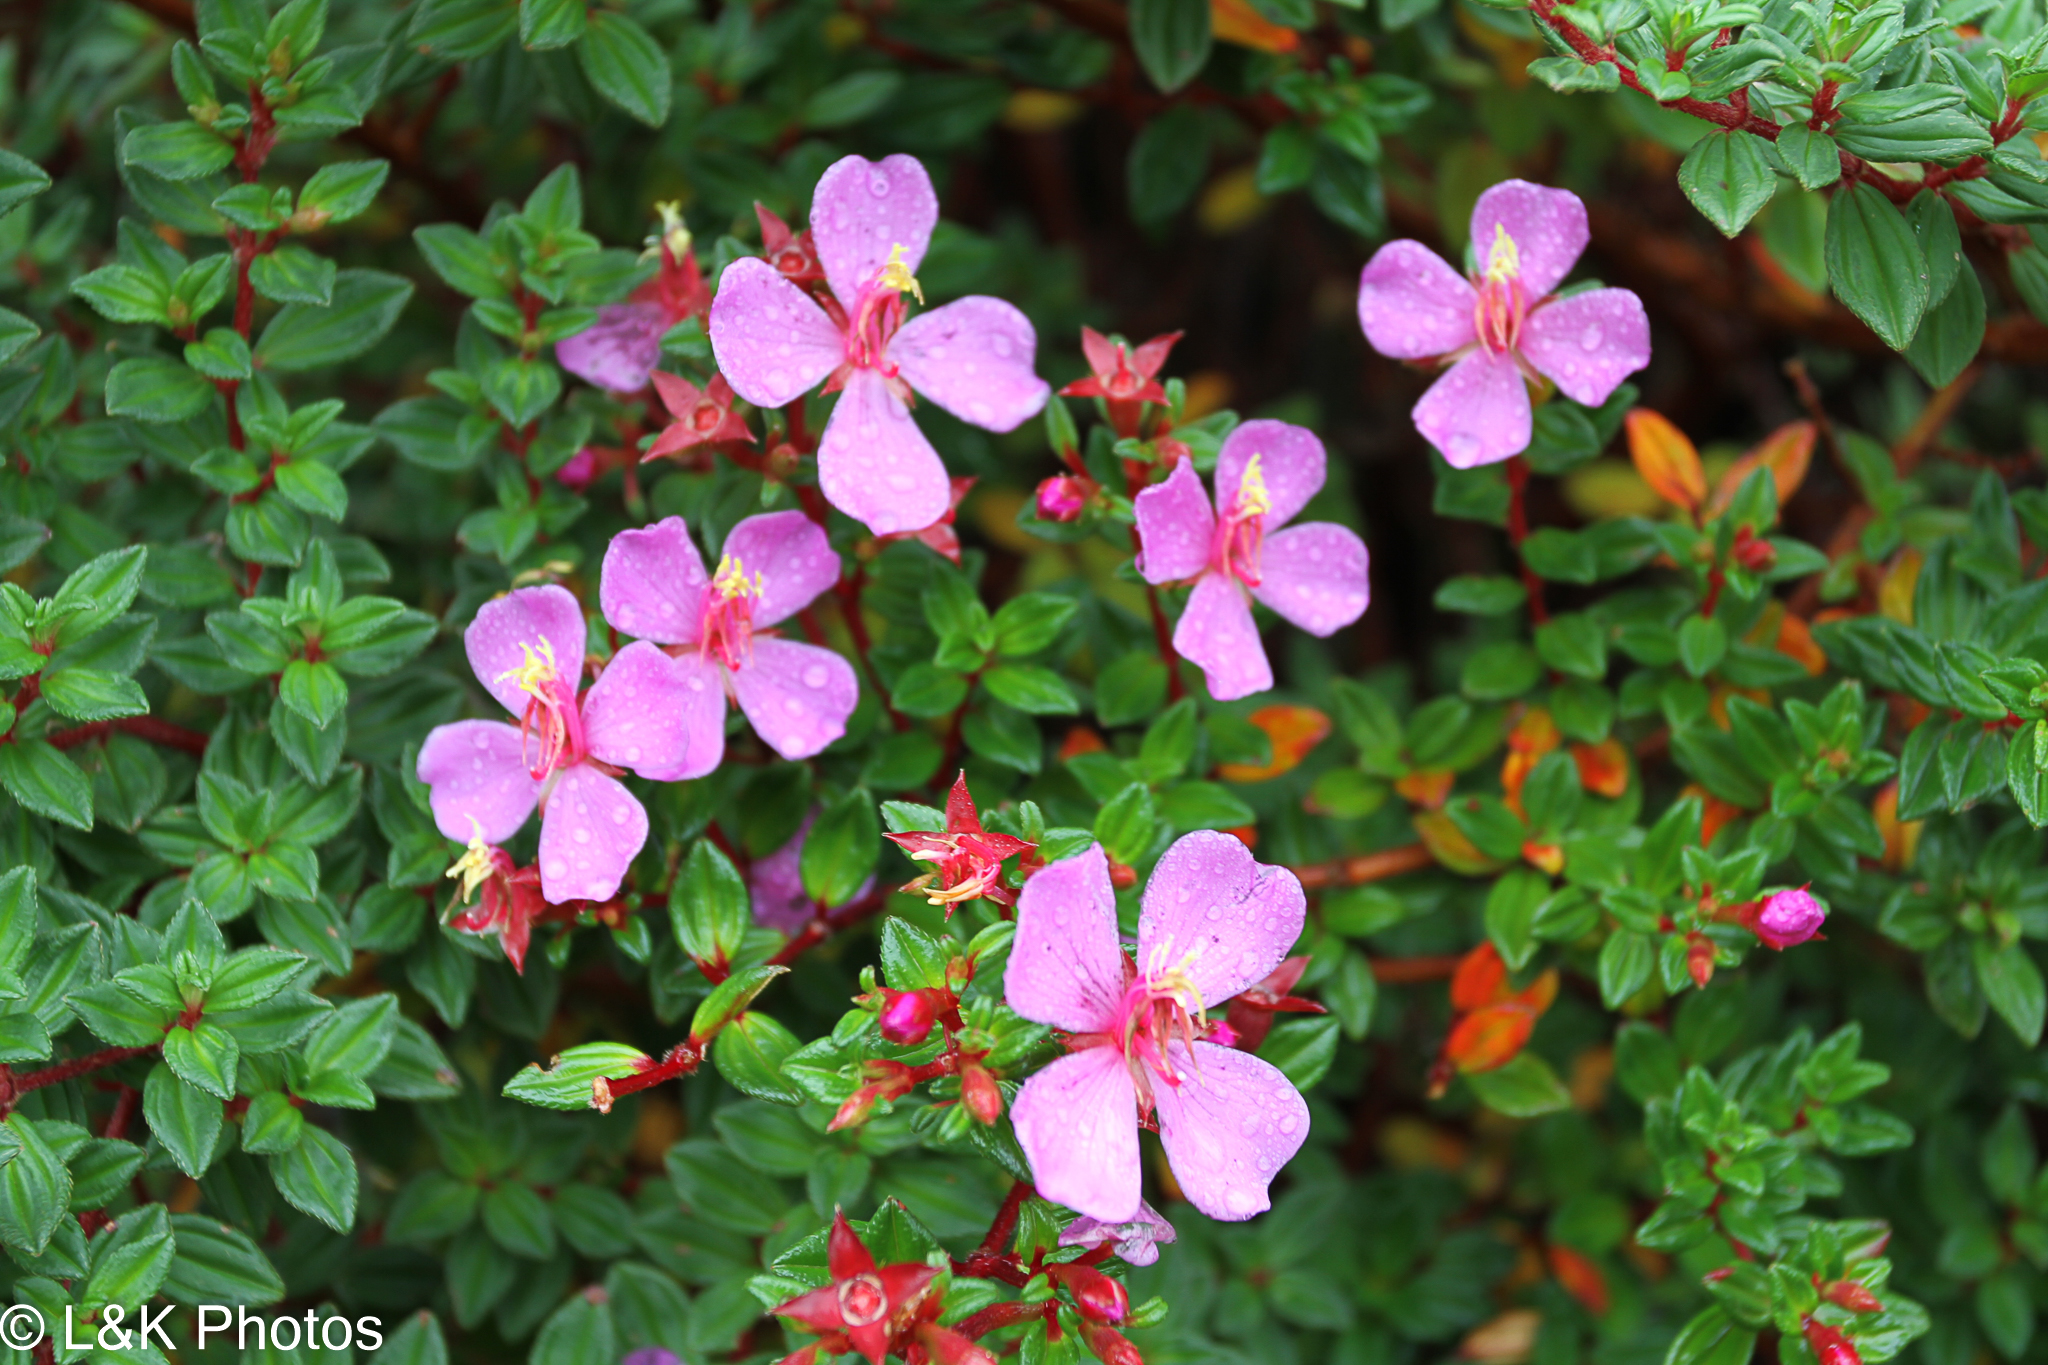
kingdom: Plantae
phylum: Tracheophyta
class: Magnoliopsida
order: Myrtales
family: Melastomataceae
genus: Monochaetum
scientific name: Monochaetum vulcanicum
